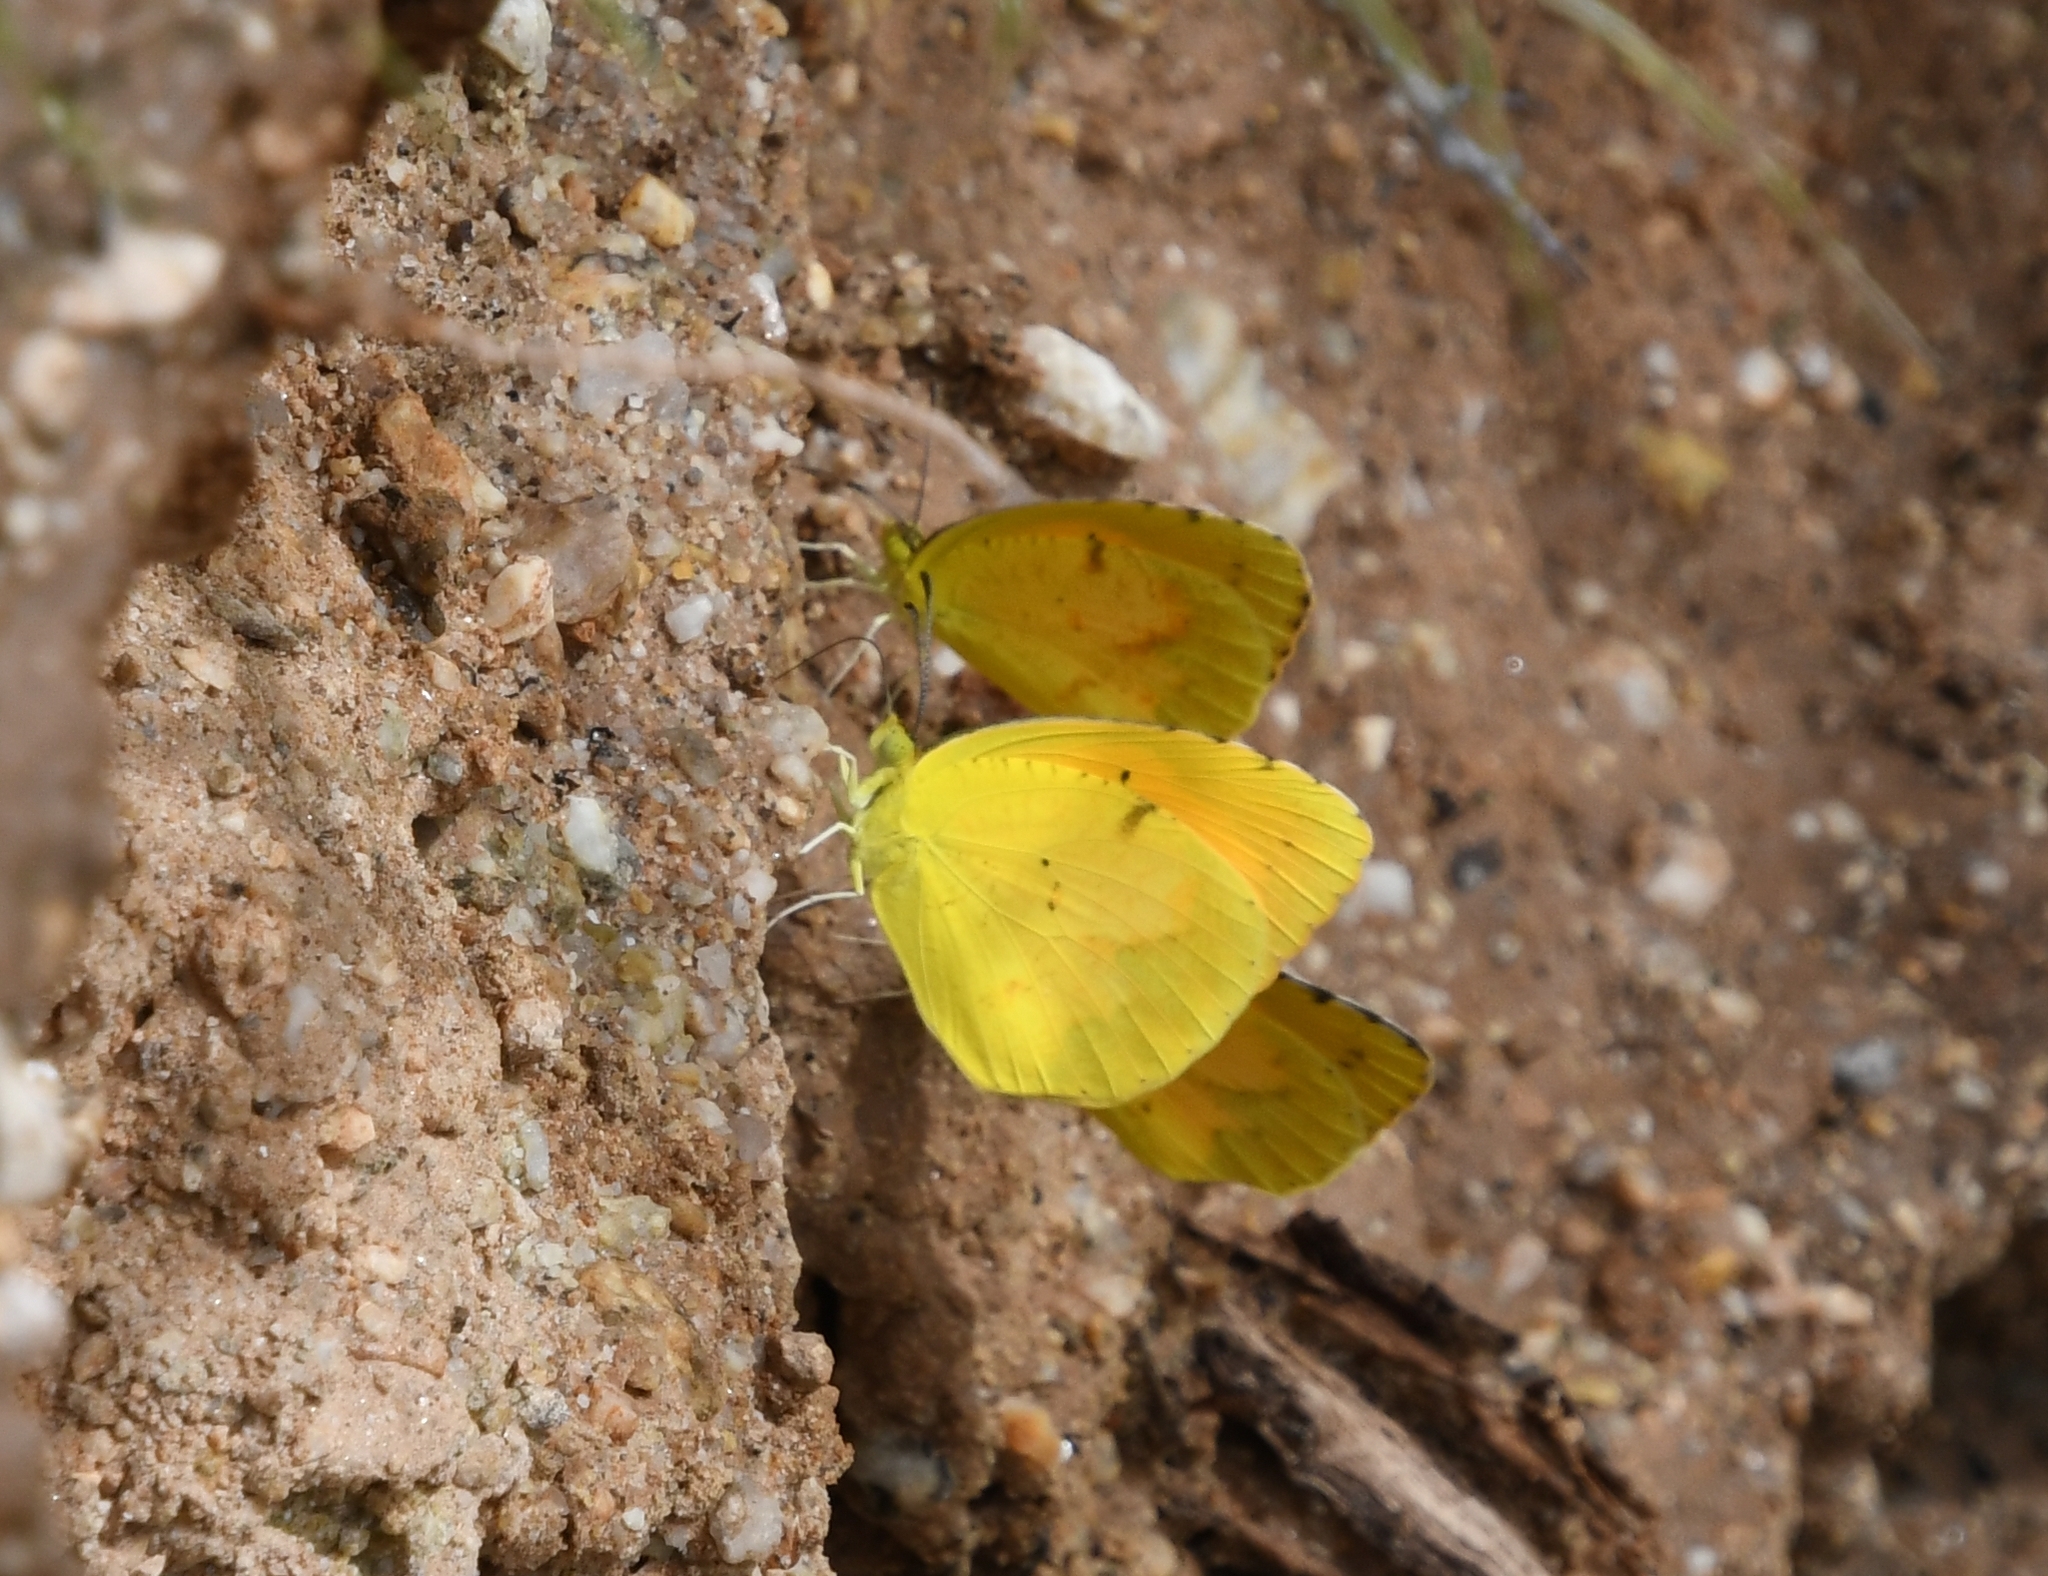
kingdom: Animalia
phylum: Arthropoda
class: Insecta
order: Lepidoptera
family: Pieridae
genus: Abaeis
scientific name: Abaeis nicippe
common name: Sleepy orange
